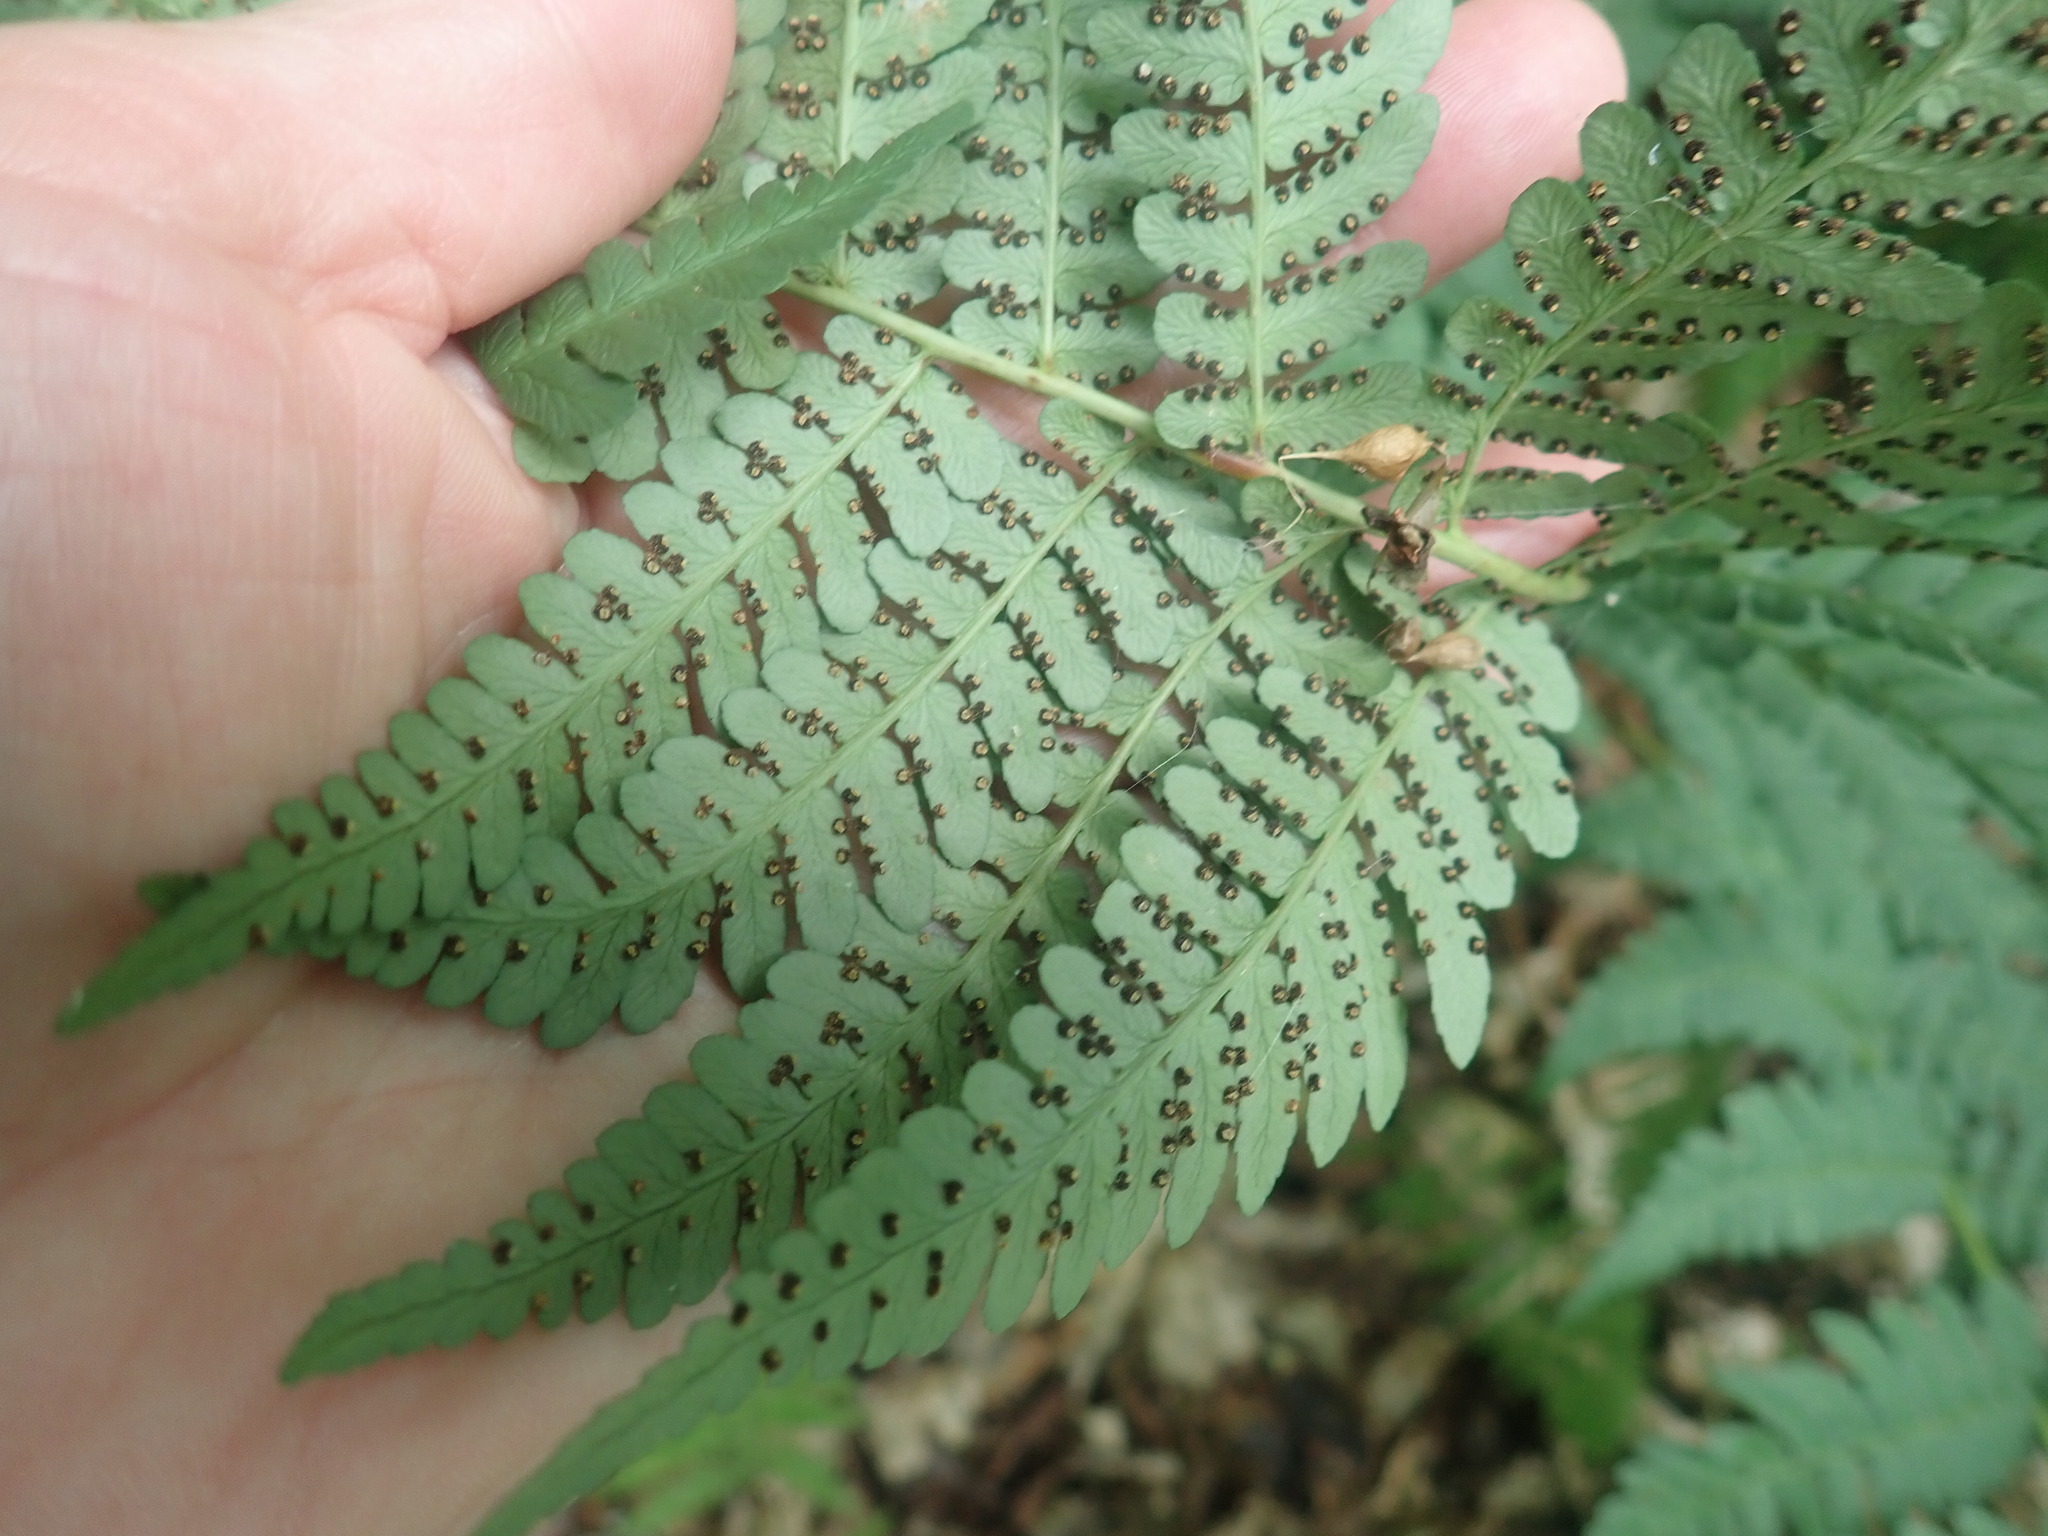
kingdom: Plantae
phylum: Tracheophyta
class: Polypodiopsida
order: Polypodiales
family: Dryopteridaceae
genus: Dryopteris
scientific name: Dryopteris marginalis
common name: Marginal wood fern
